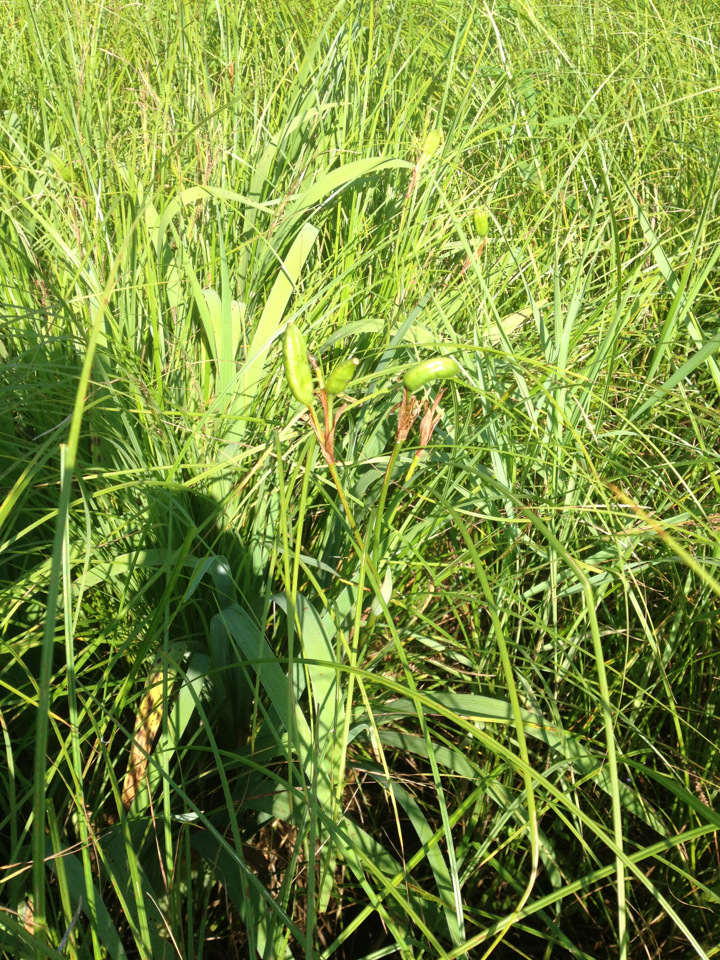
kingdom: Plantae
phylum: Tracheophyta
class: Liliopsida
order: Asparagales
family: Iridaceae
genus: Iris
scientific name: Iris versicolor
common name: Purple iris
